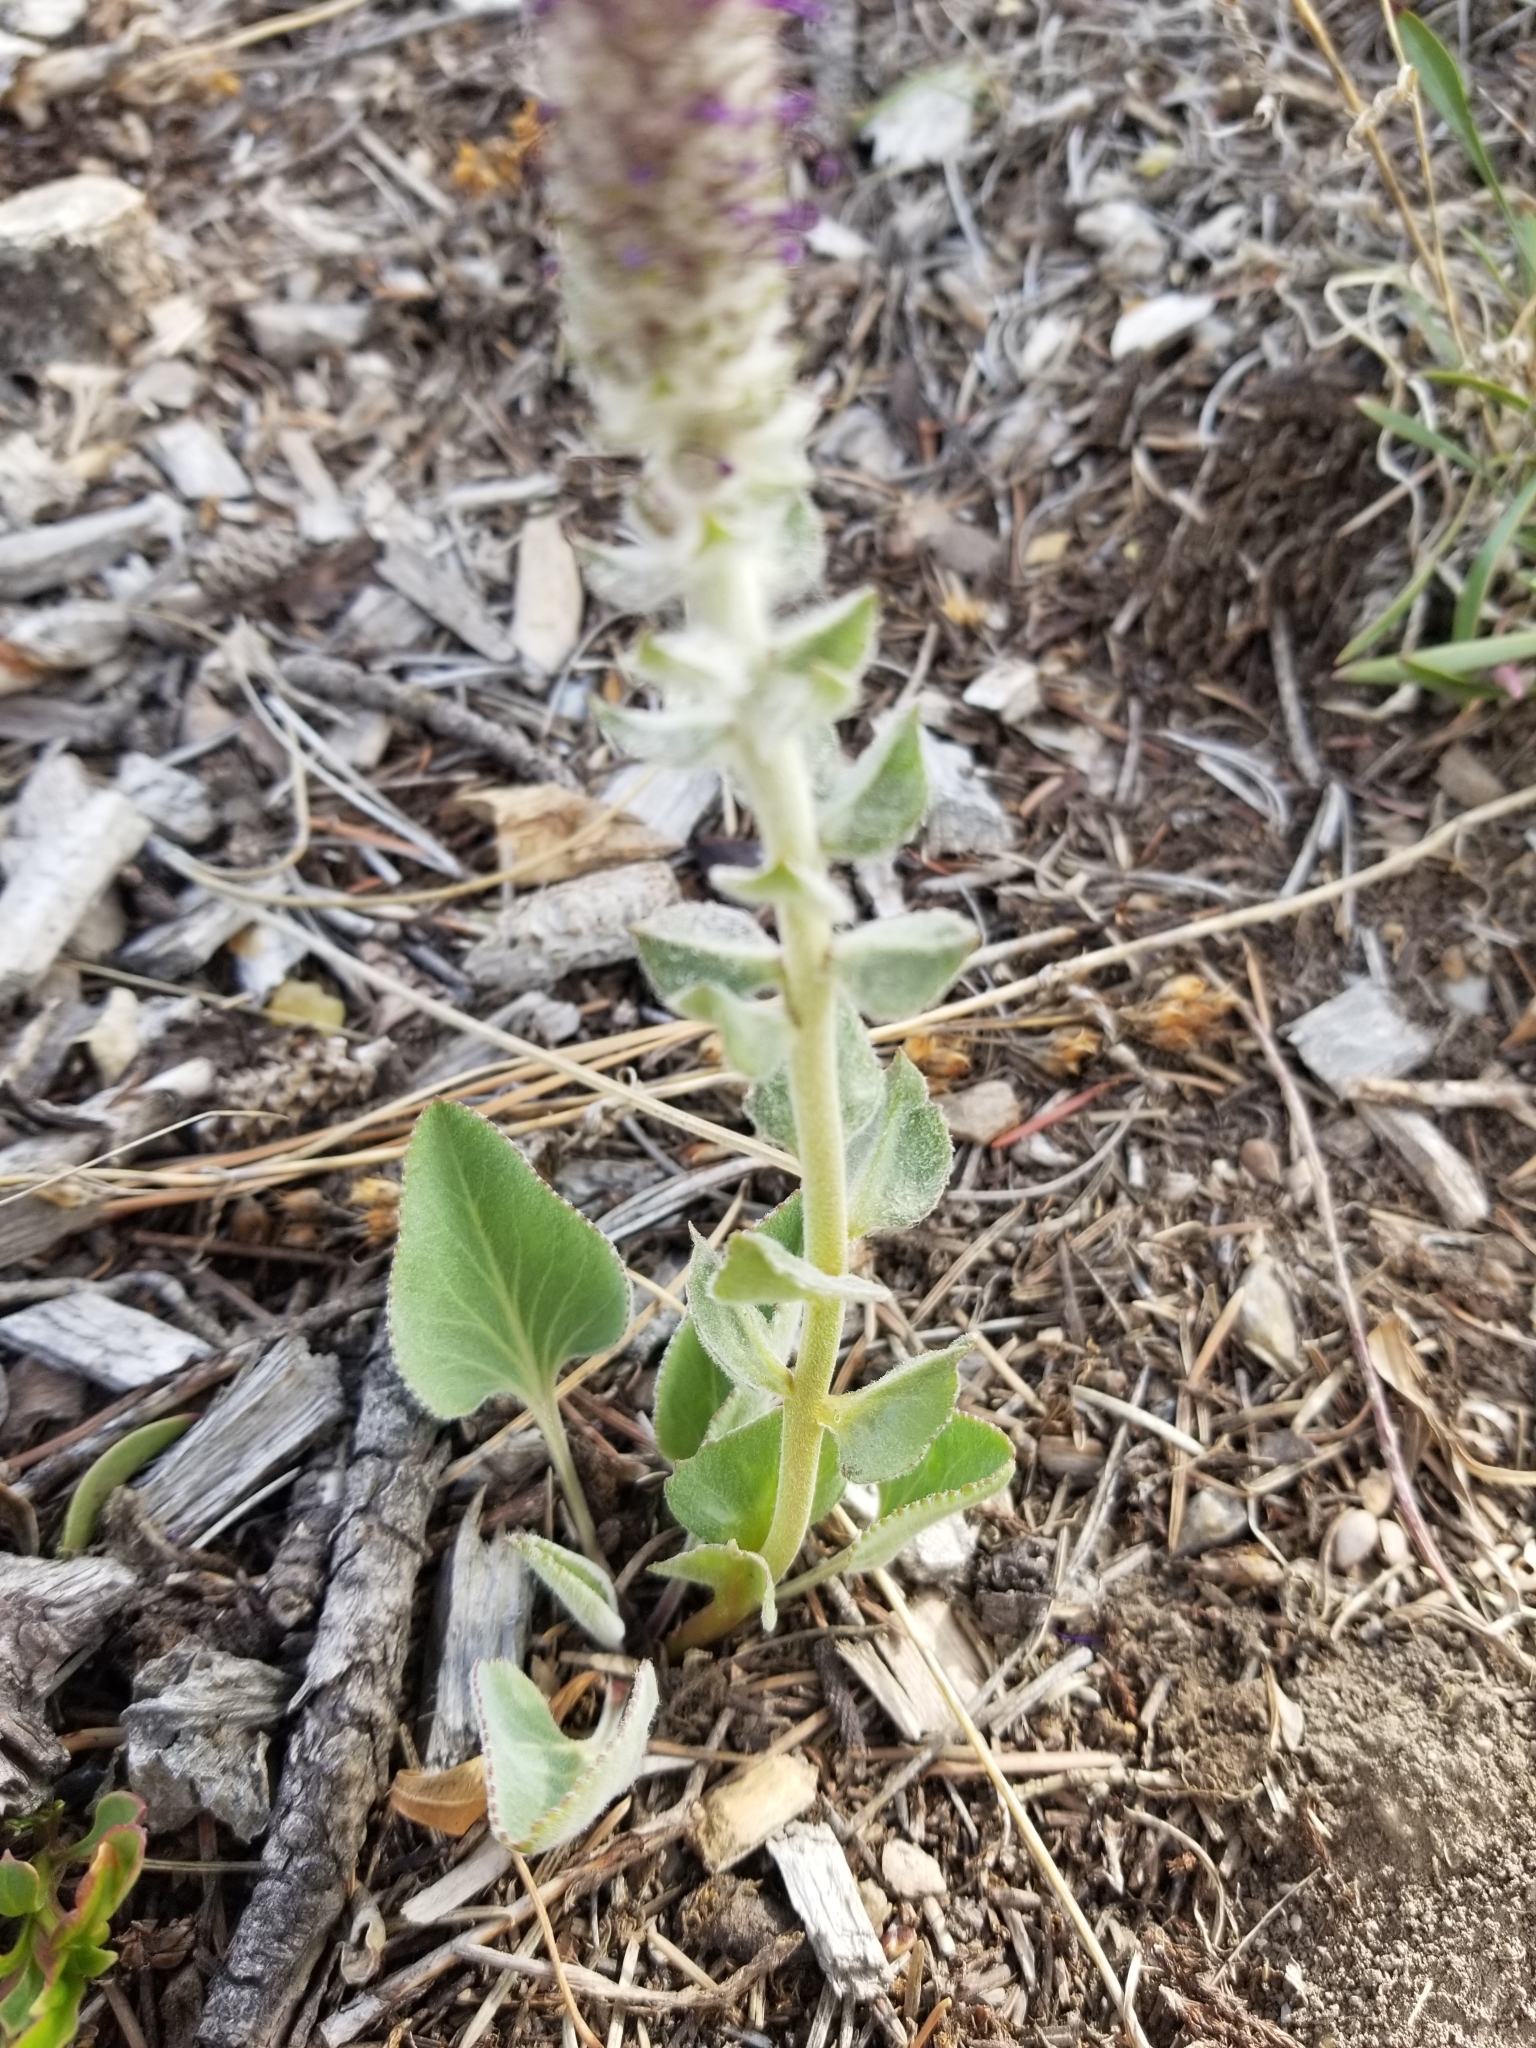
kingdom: Plantae
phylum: Tracheophyta
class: Magnoliopsida
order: Lamiales
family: Plantaginaceae
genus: Synthyris
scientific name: Synthyris wyomingensis
